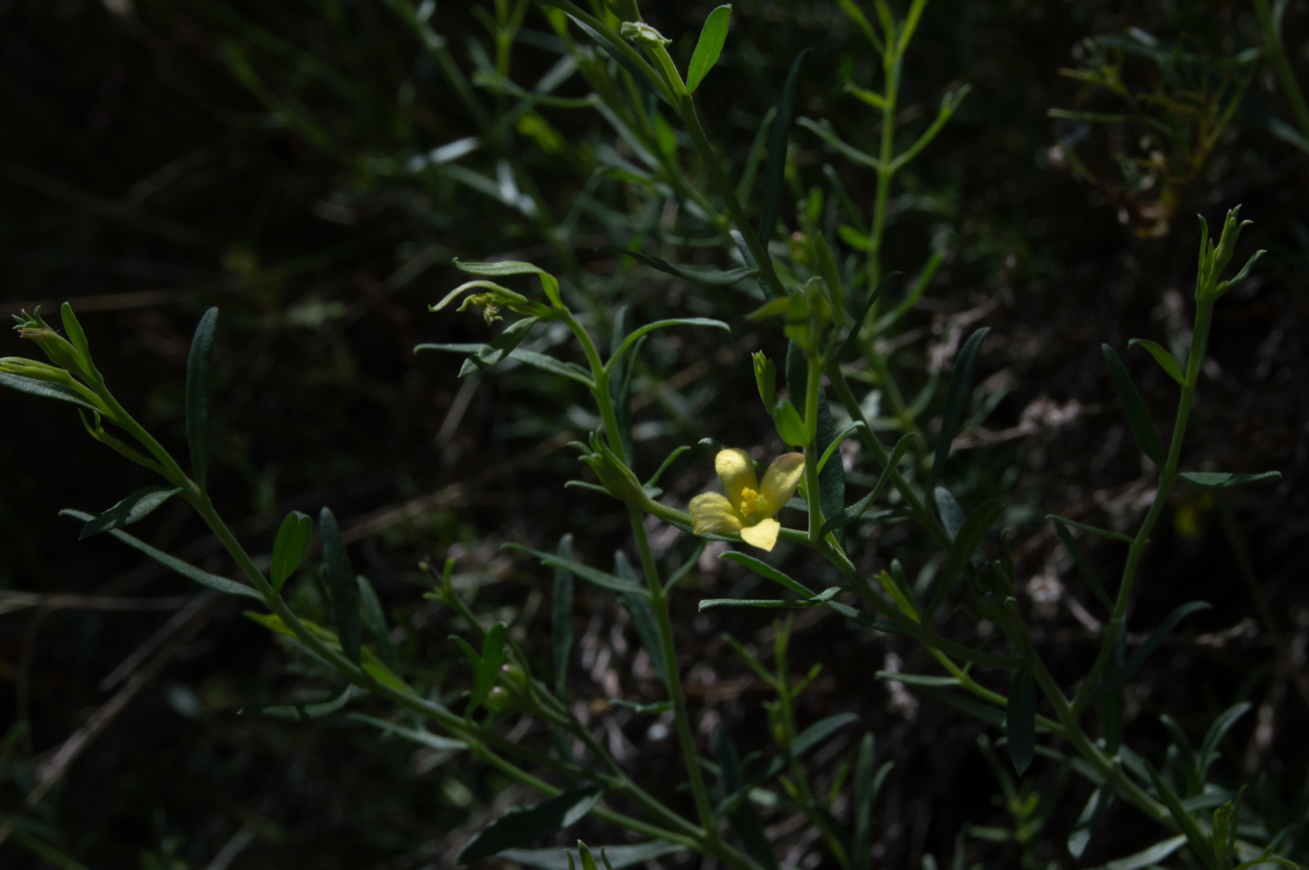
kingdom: Plantae
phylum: Tracheophyta
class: Magnoliopsida
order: Lamiales
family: Oleaceae
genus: Menodora
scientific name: Menodora integrifolia
